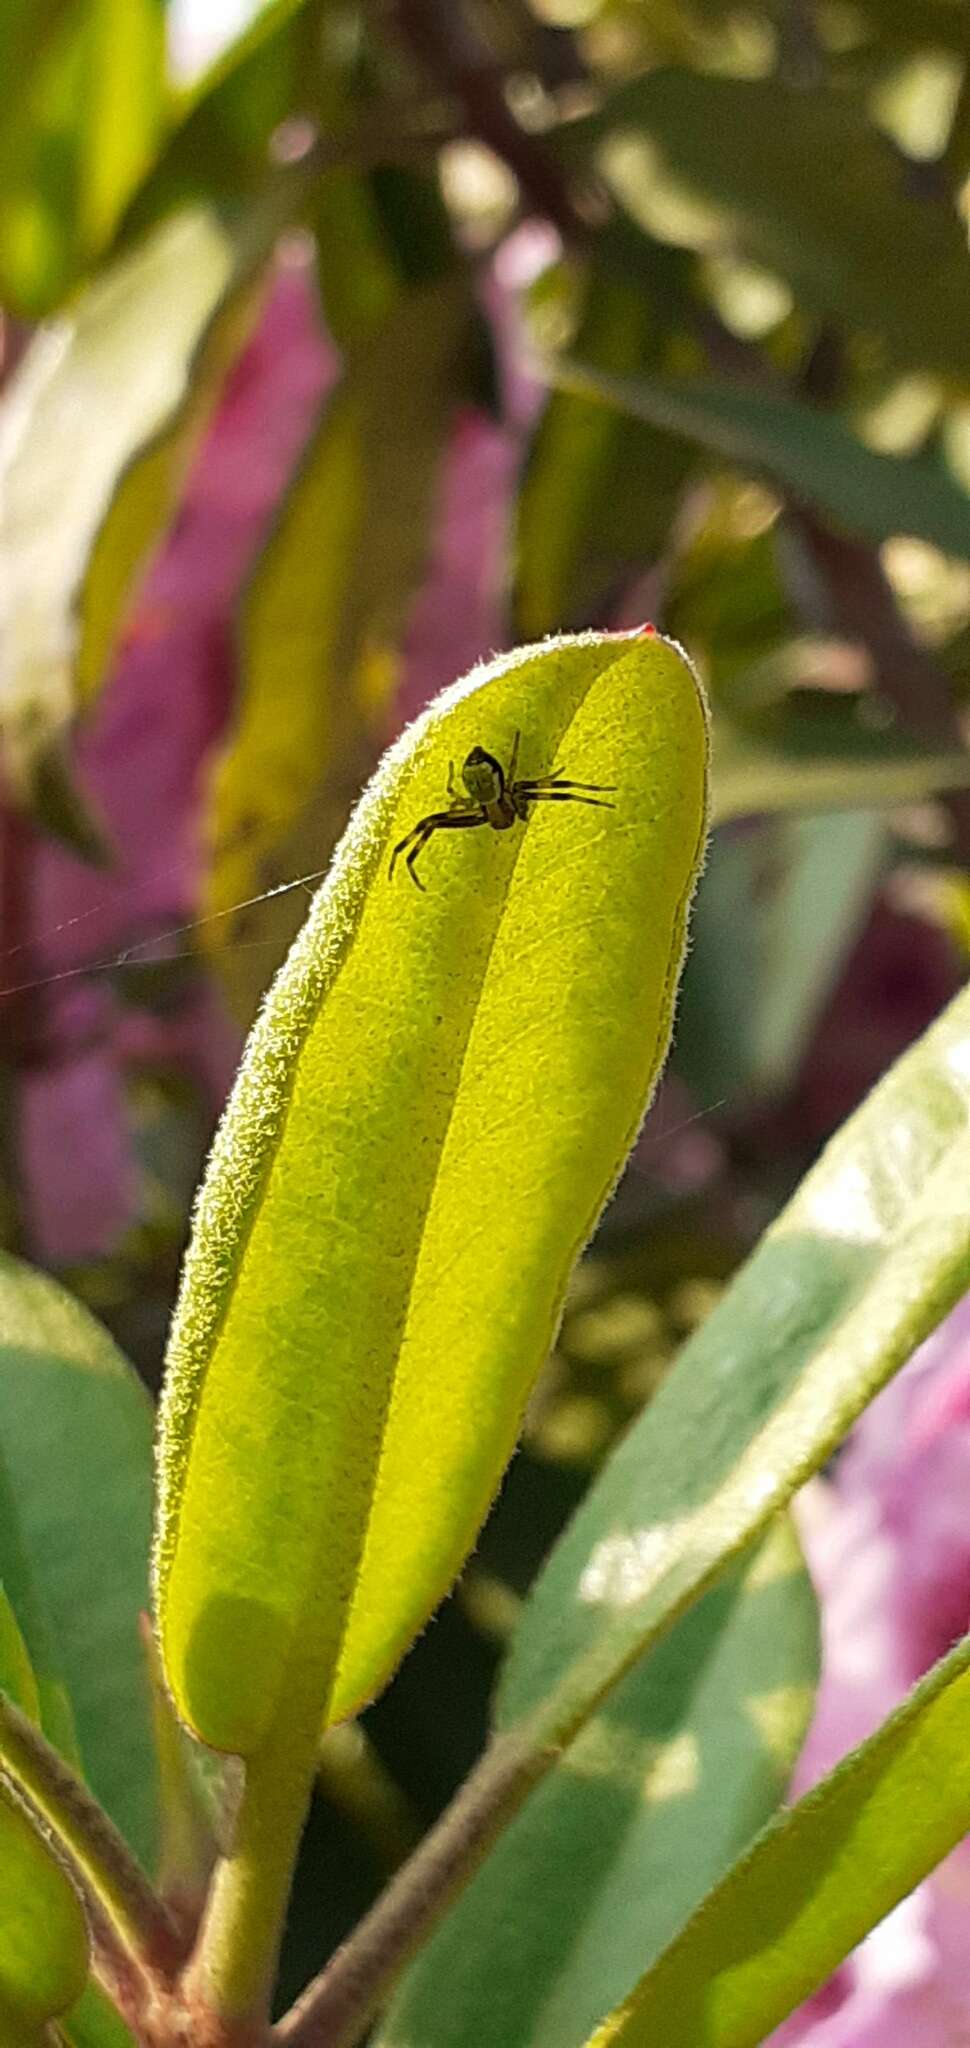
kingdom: Animalia
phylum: Arthropoda
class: Arachnida
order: Araneae
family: Thomisidae
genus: Ebrechtella
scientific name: Ebrechtella tricuspidata
